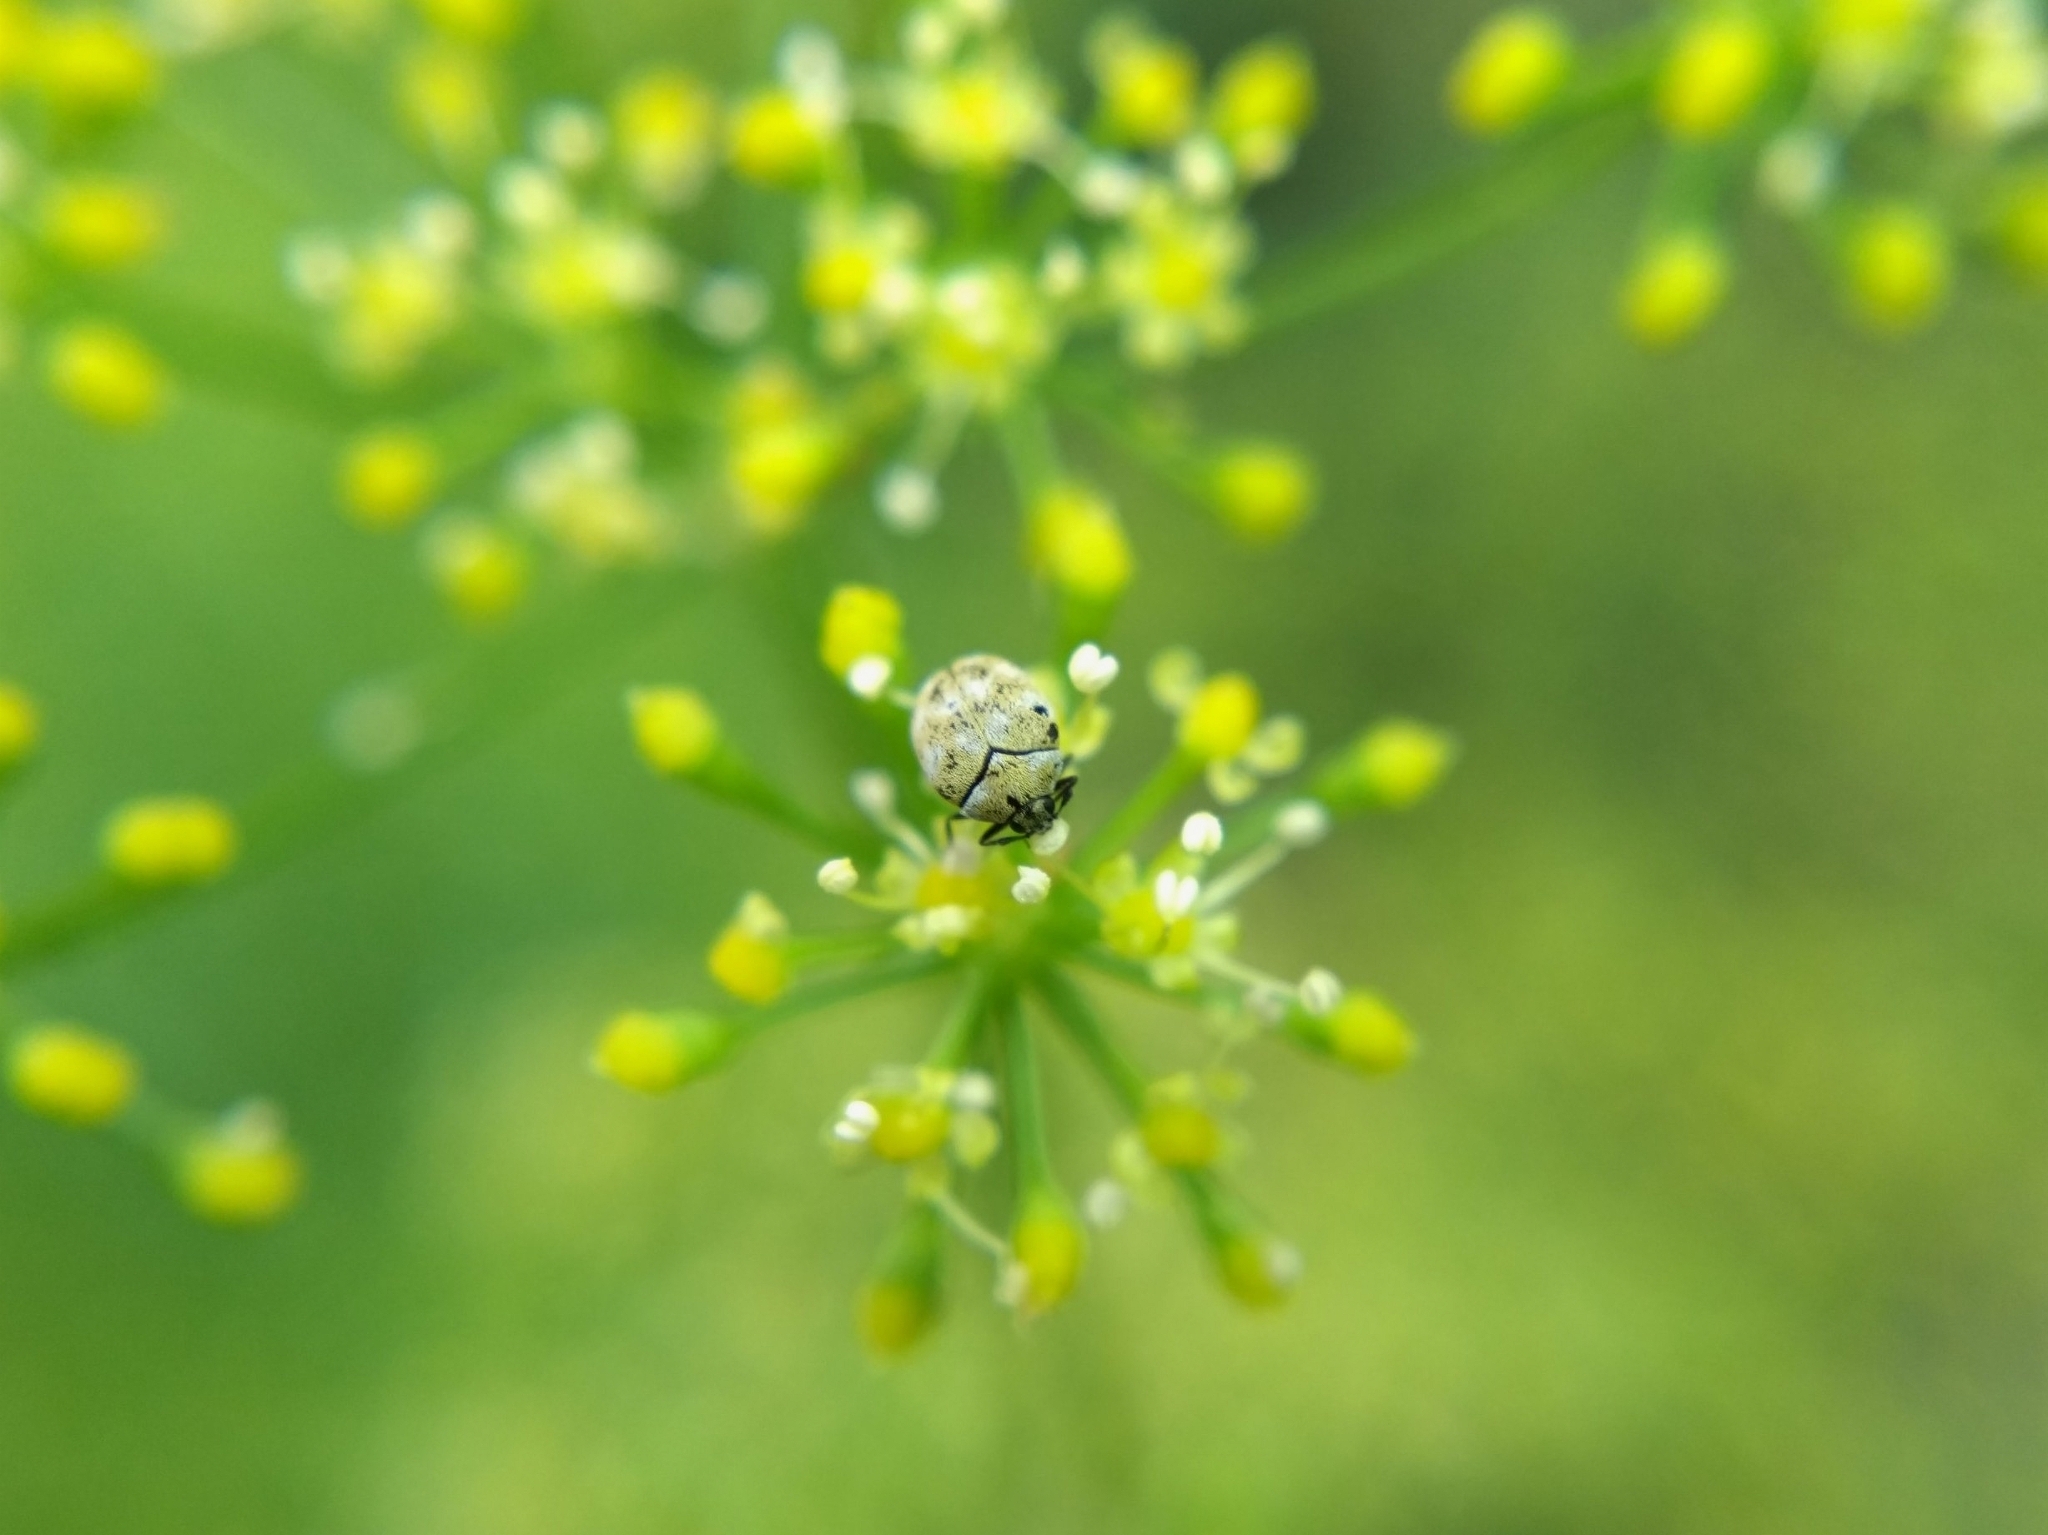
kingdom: Animalia
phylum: Arthropoda
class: Insecta
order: Coleoptera
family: Dermestidae
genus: Anthrenus
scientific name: Anthrenus verbasci
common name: Varied carpet beetle
